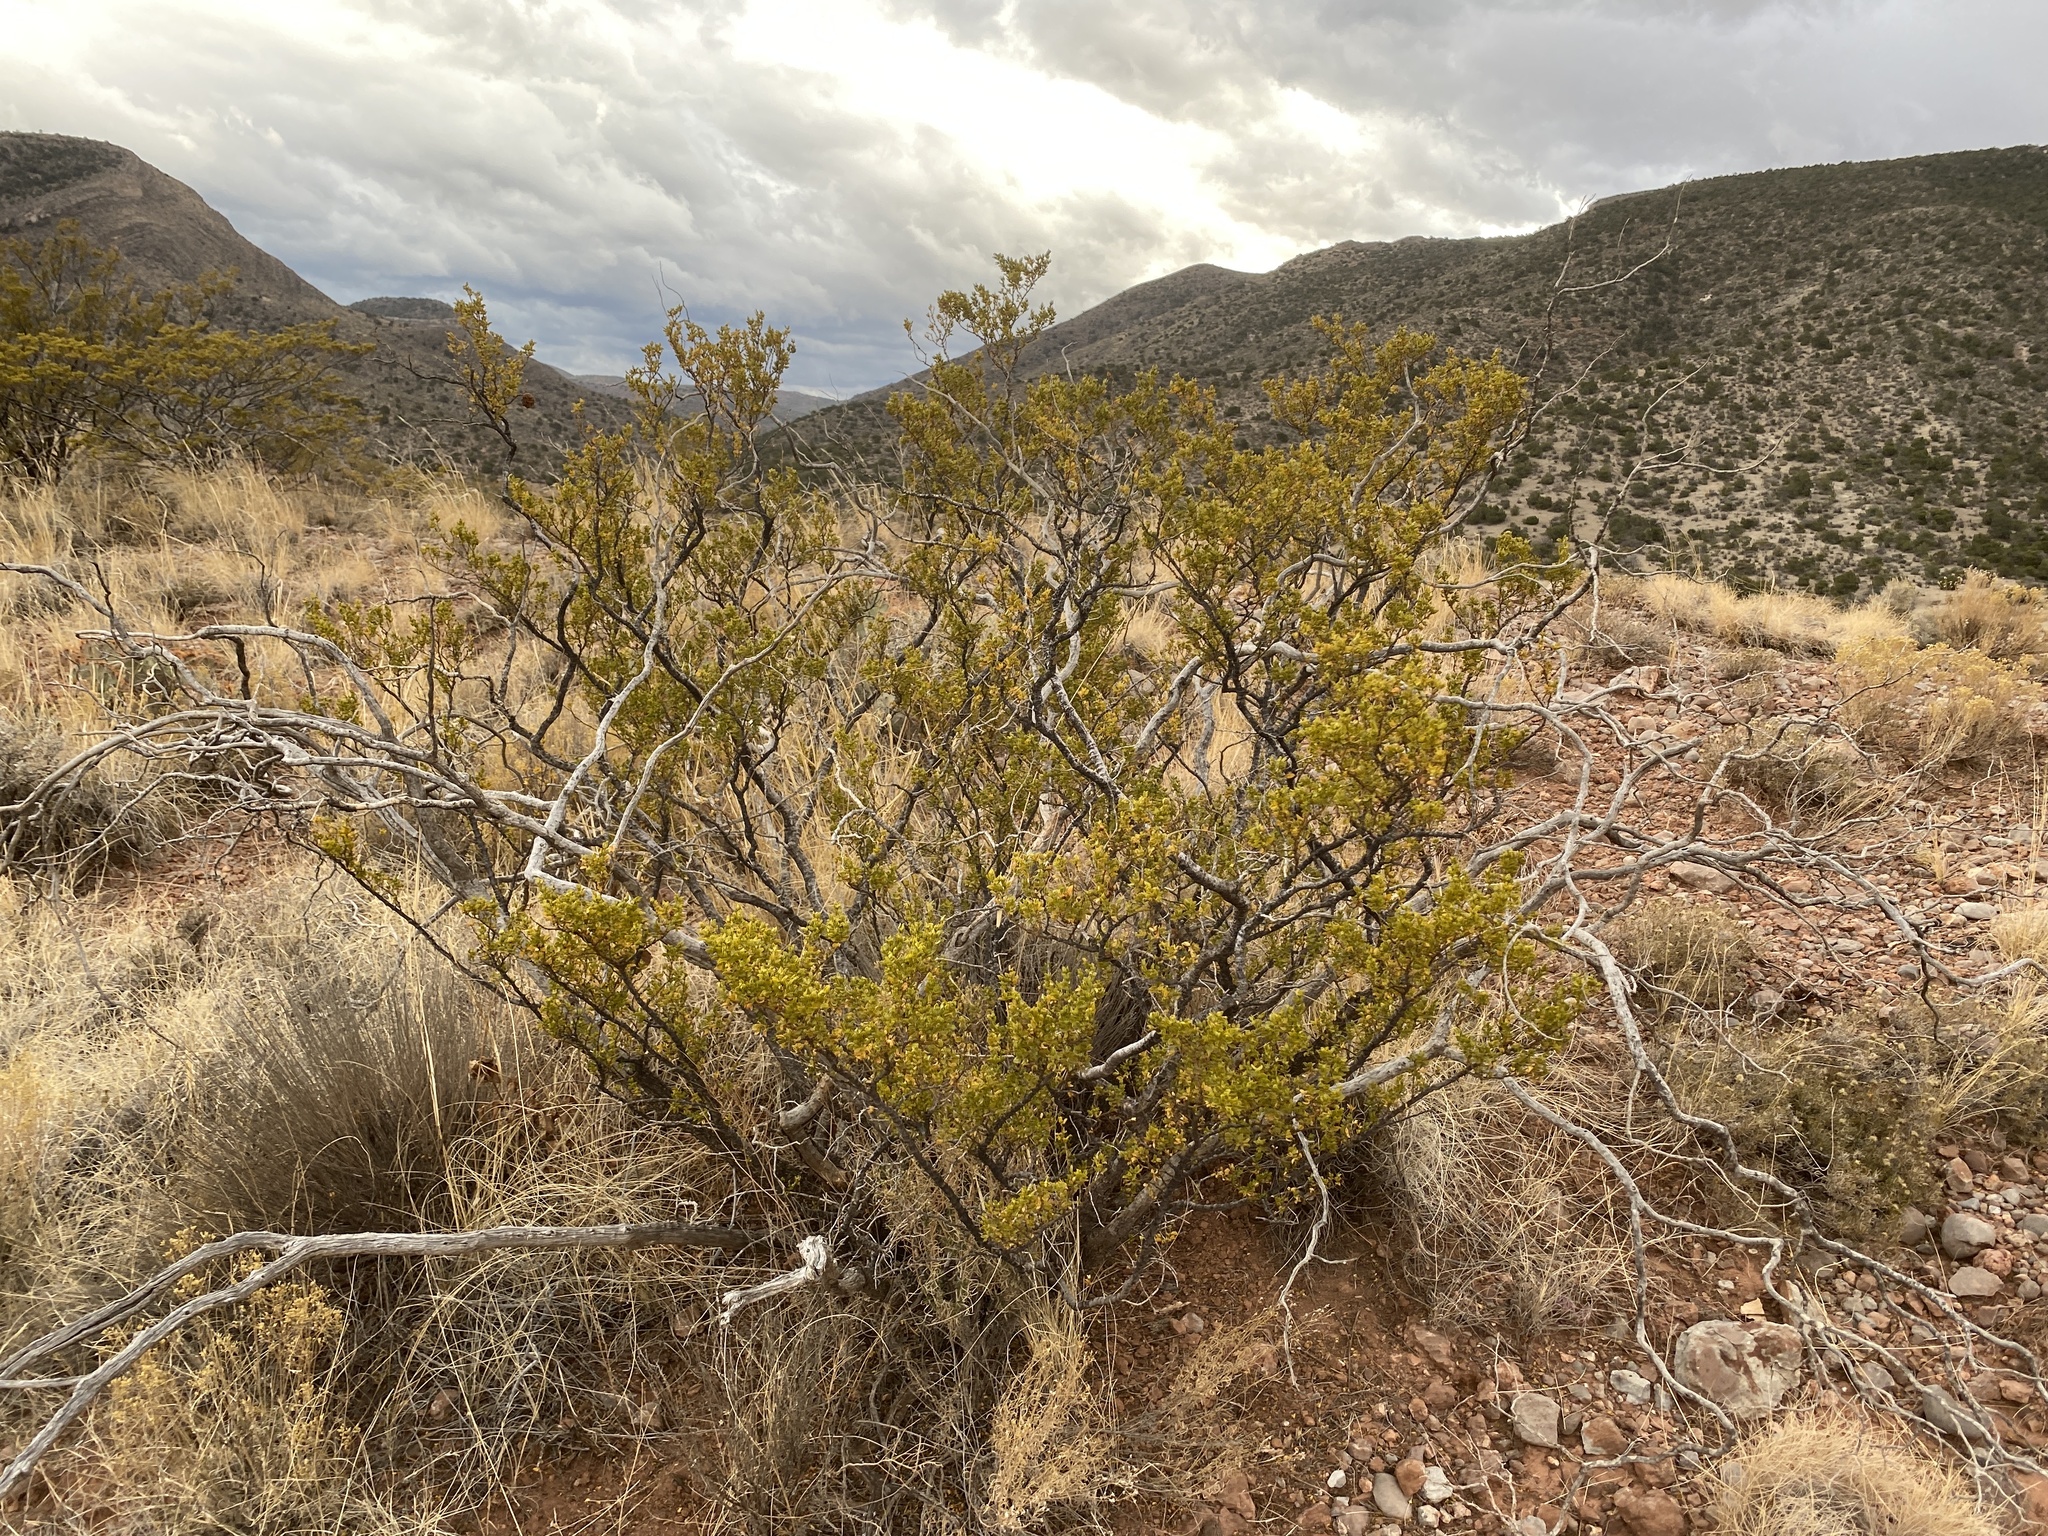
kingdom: Plantae
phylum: Tracheophyta
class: Magnoliopsida
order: Zygophyllales
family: Zygophyllaceae
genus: Larrea
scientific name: Larrea tridentata
